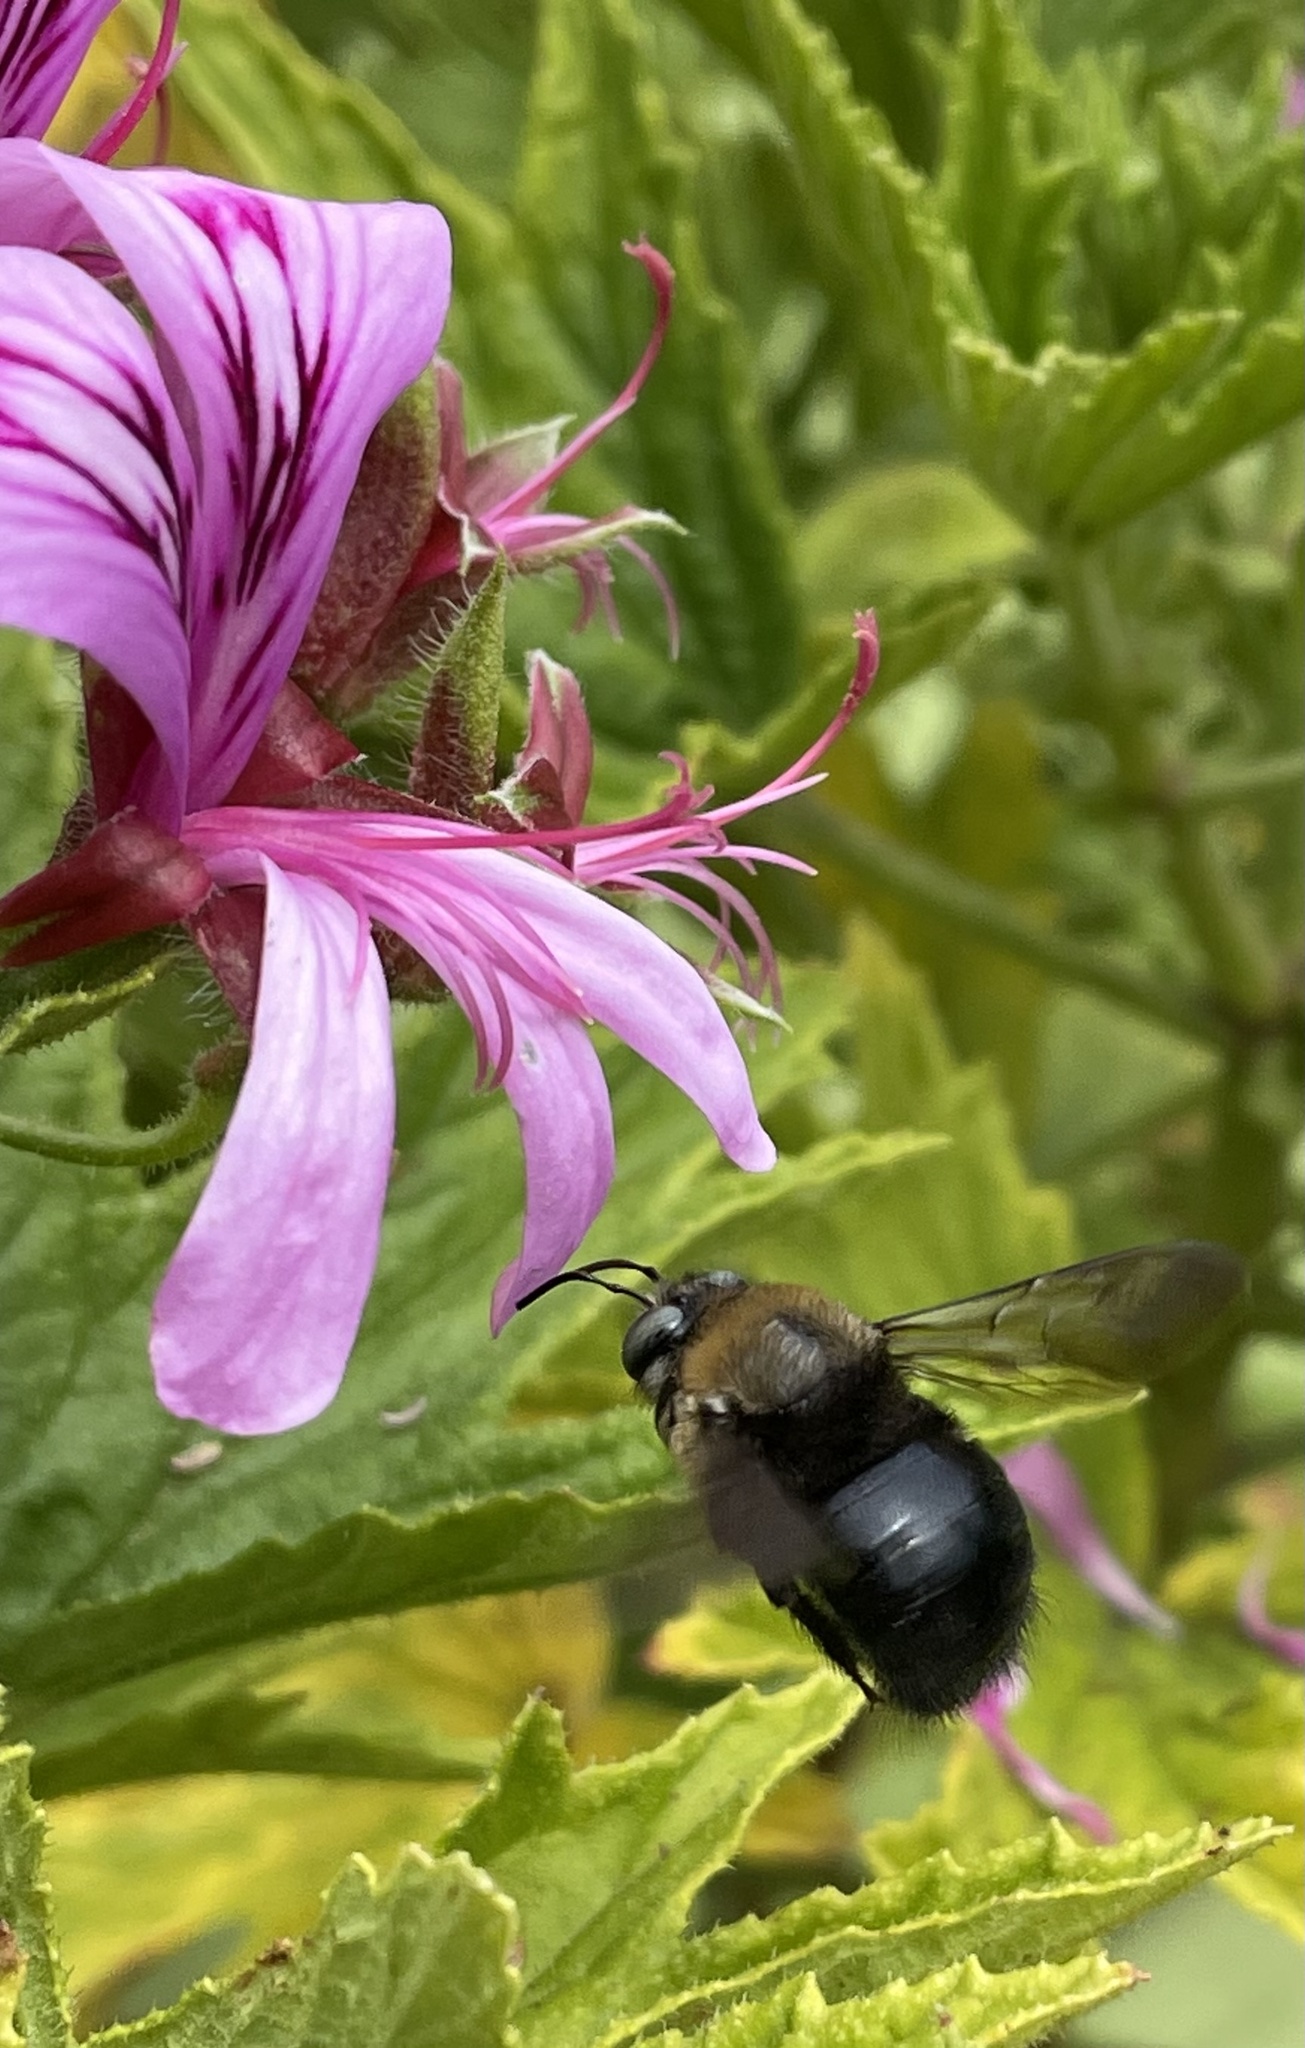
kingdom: Animalia
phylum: Arthropoda
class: Insecta
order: Hymenoptera
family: Apidae
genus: Xylocopa
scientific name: Xylocopa tabaniformis
